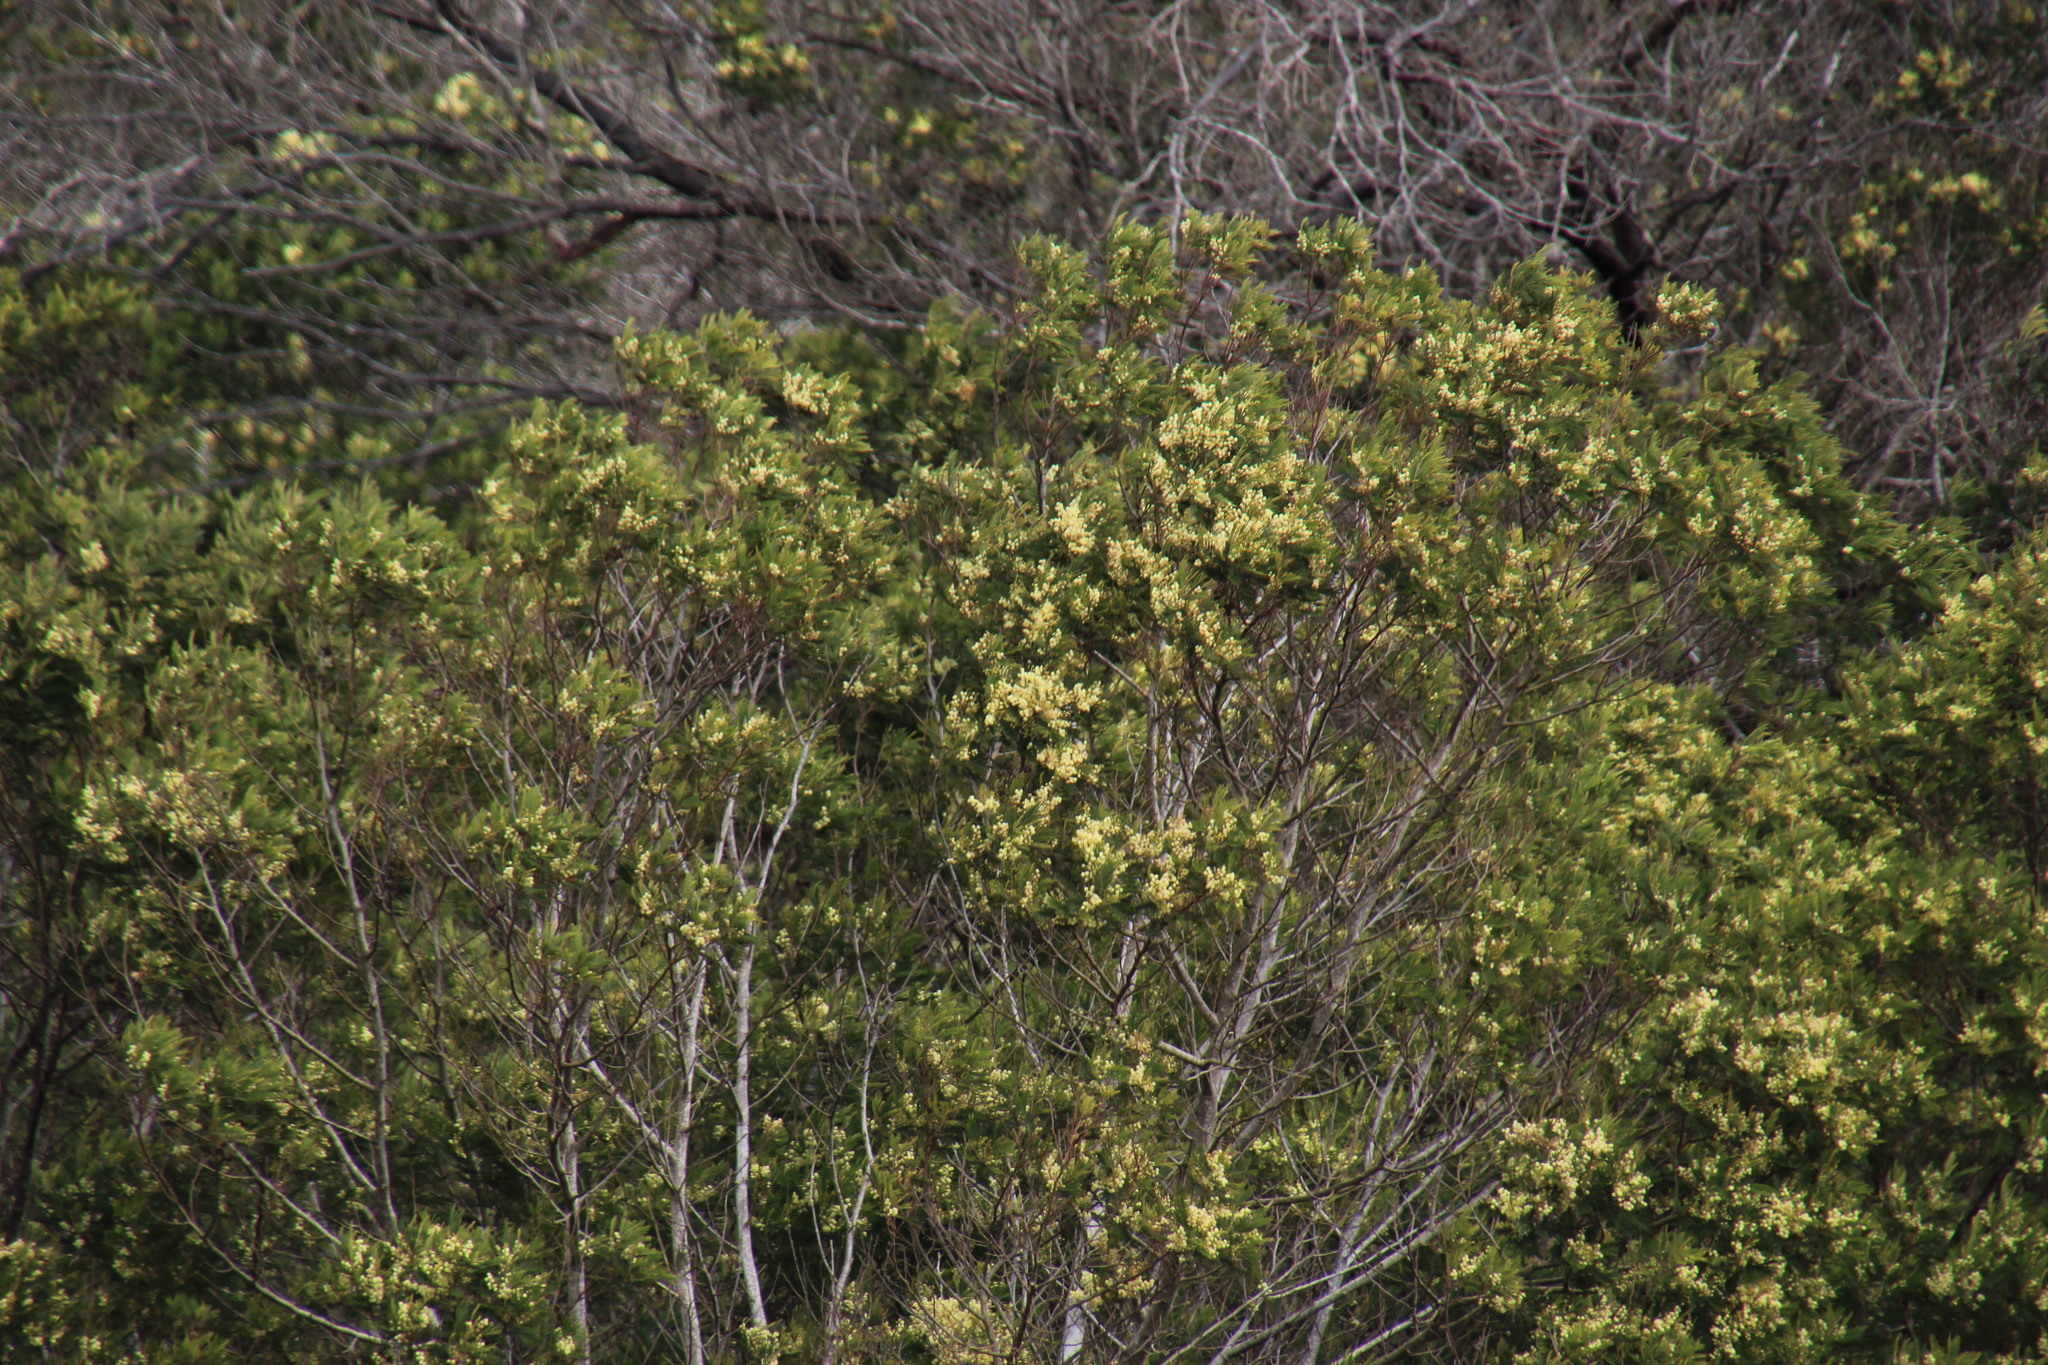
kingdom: Plantae
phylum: Tracheophyta
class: Magnoliopsida
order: Fabales
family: Fabaceae
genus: Acacia
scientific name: Acacia mearnsii
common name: Black wattle
